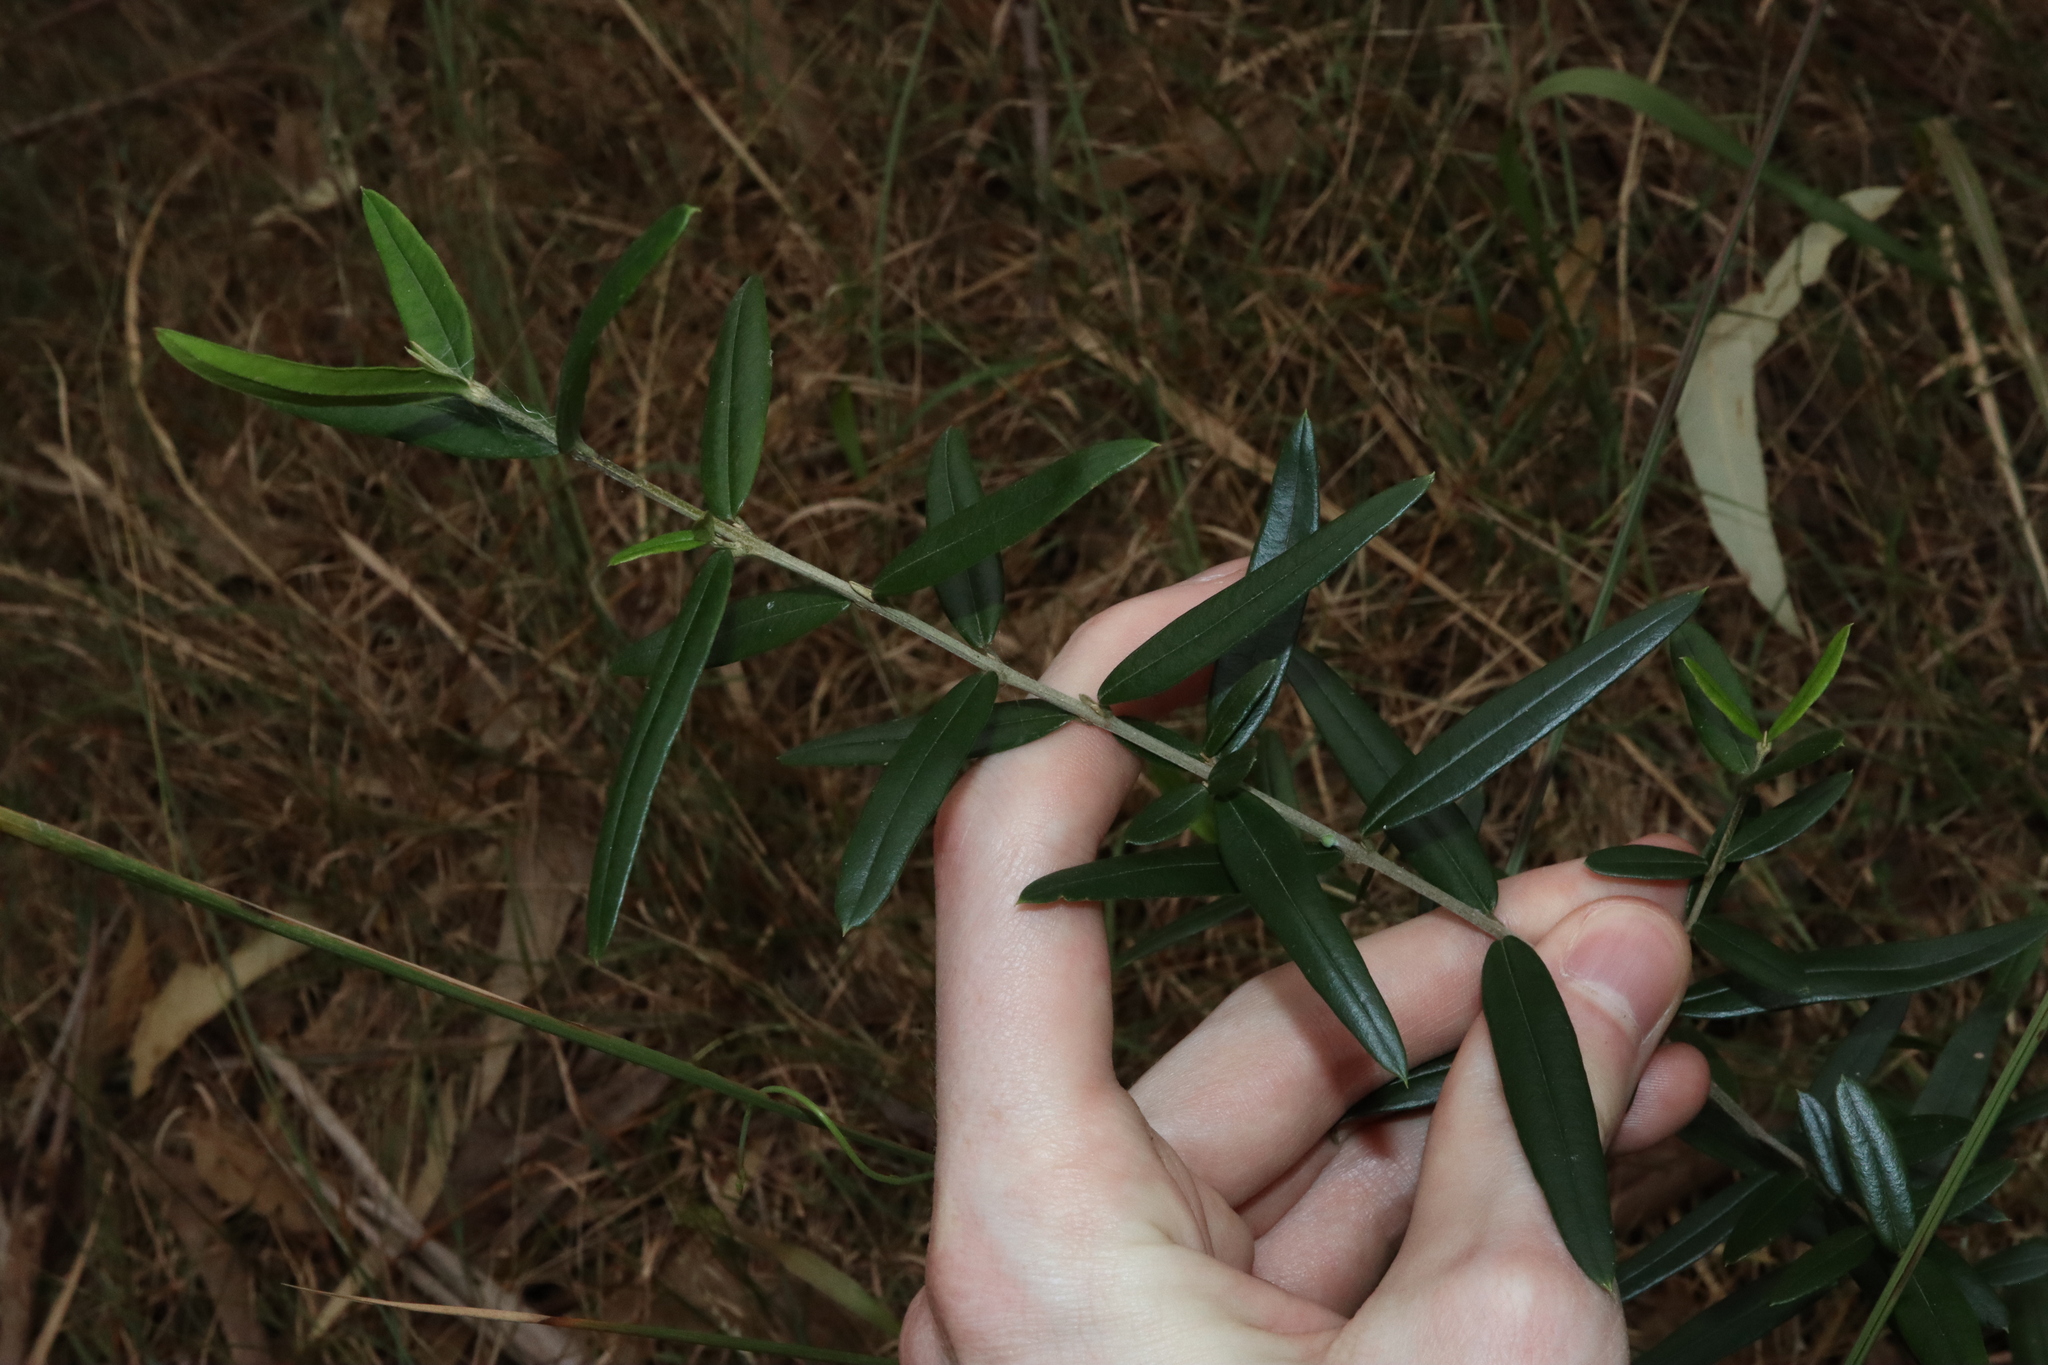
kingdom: Plantae
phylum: Tracheophyta
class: Magnoliopsida
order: Lamiales
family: Oleaceae
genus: Olea
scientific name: Olea europaea
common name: Olive
